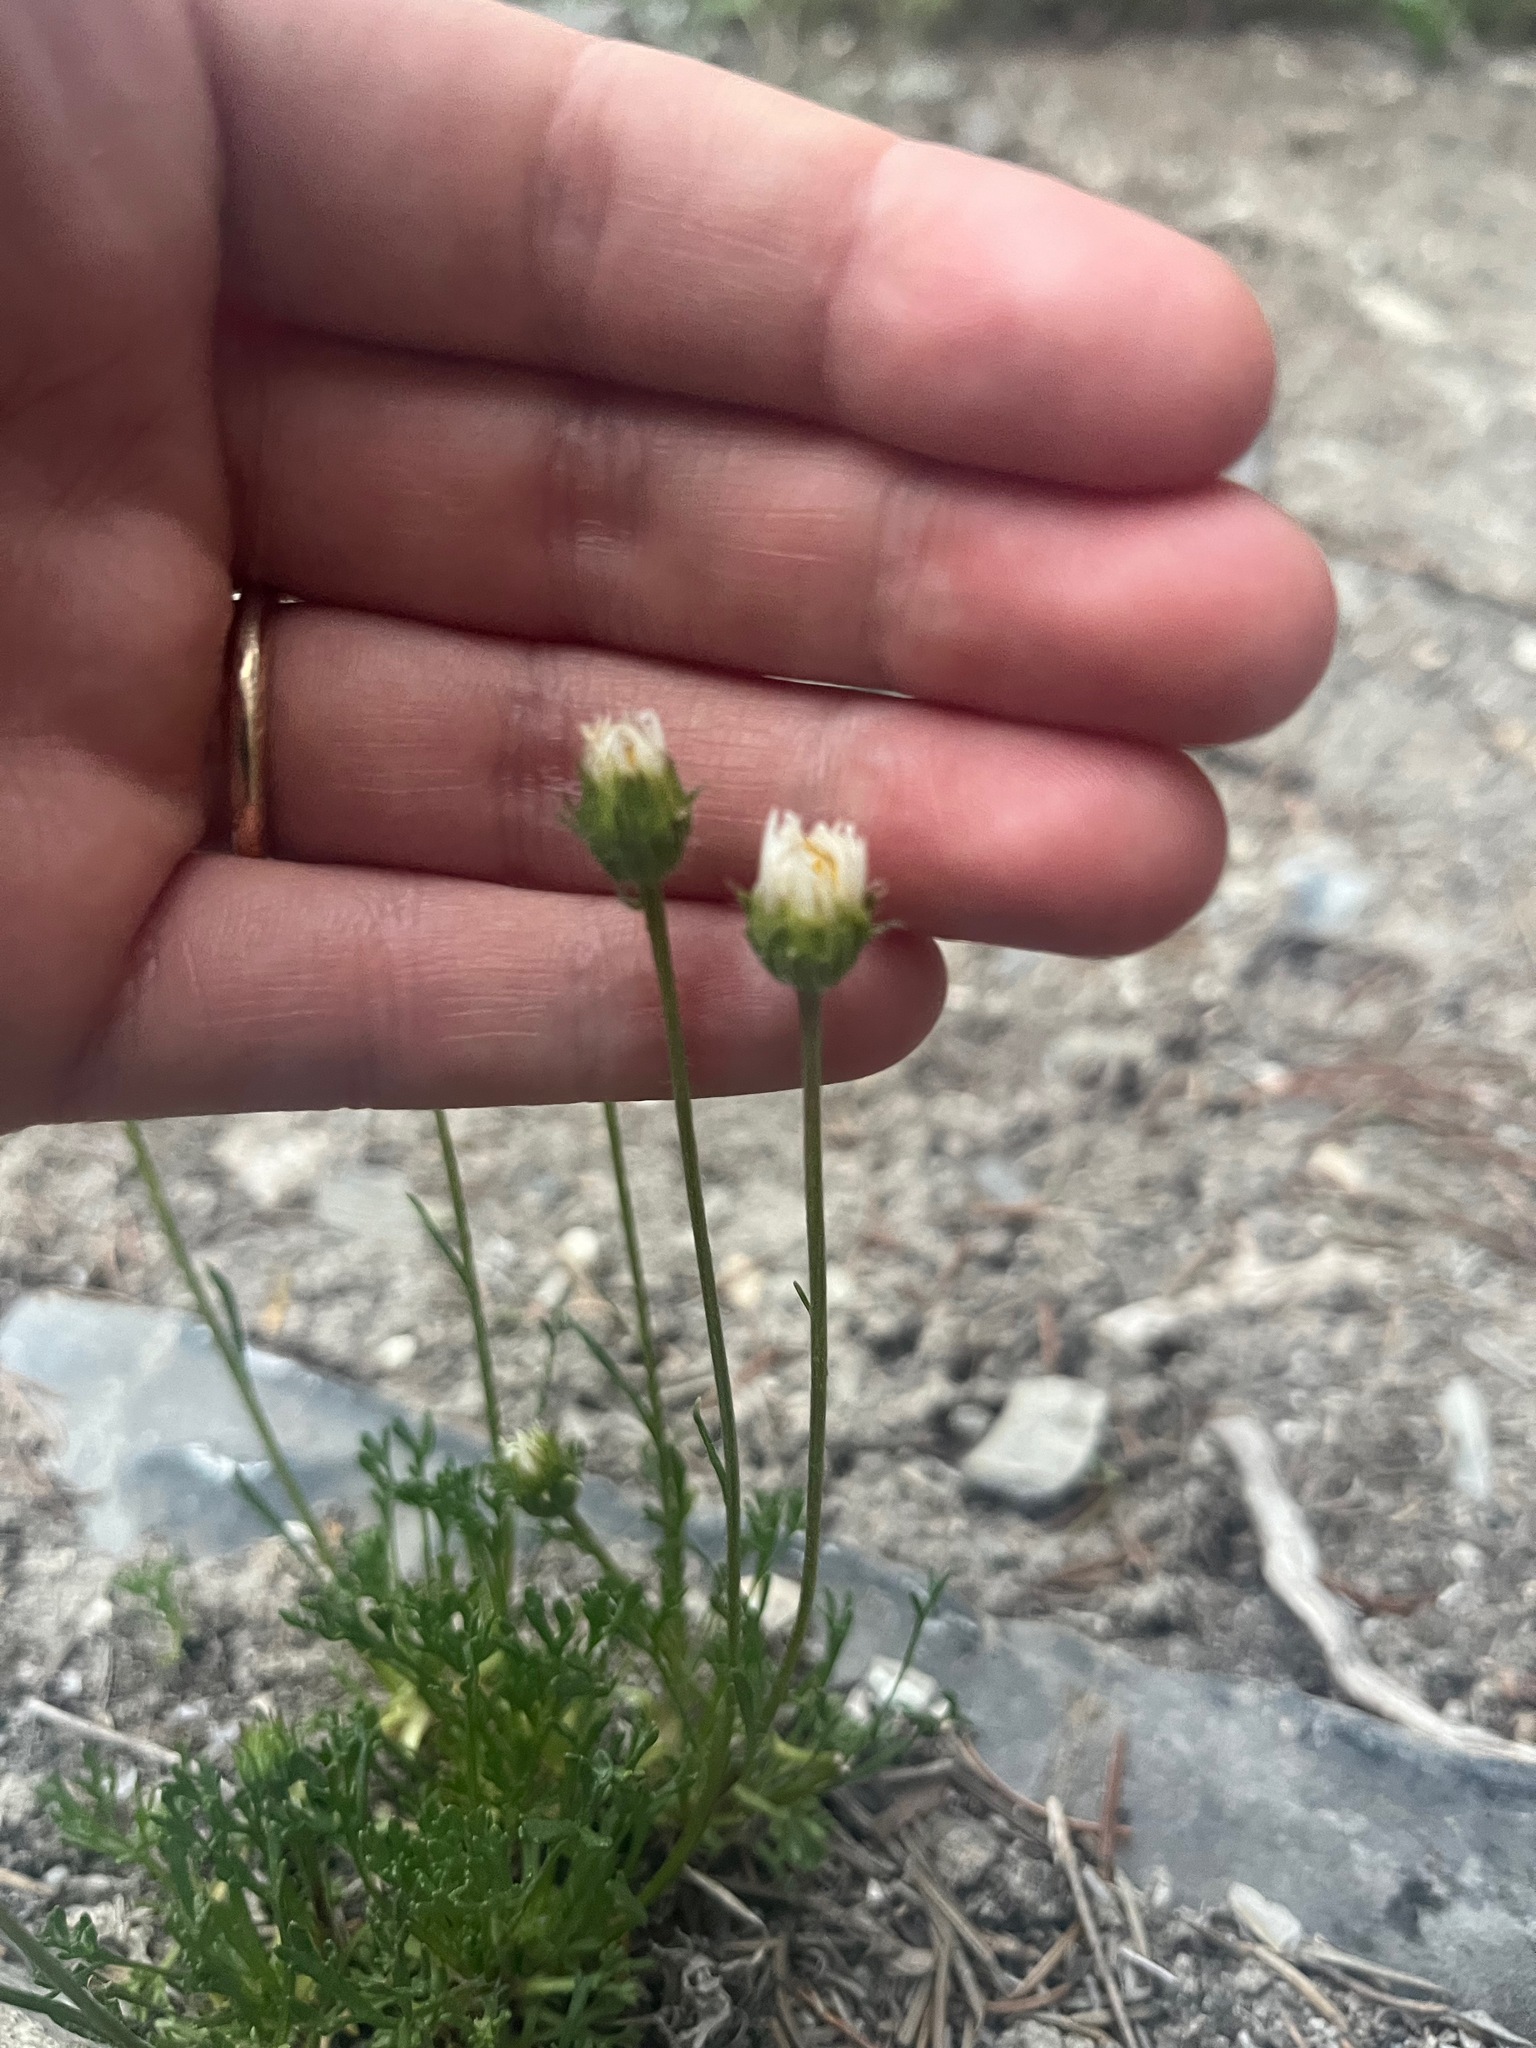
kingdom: Plantae
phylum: Tracheophyta
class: Magnoliopsida
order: Asterales
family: Asteraceae
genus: Erigeron
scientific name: Erigeron compositus
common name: Dwarf mountain fleabane
